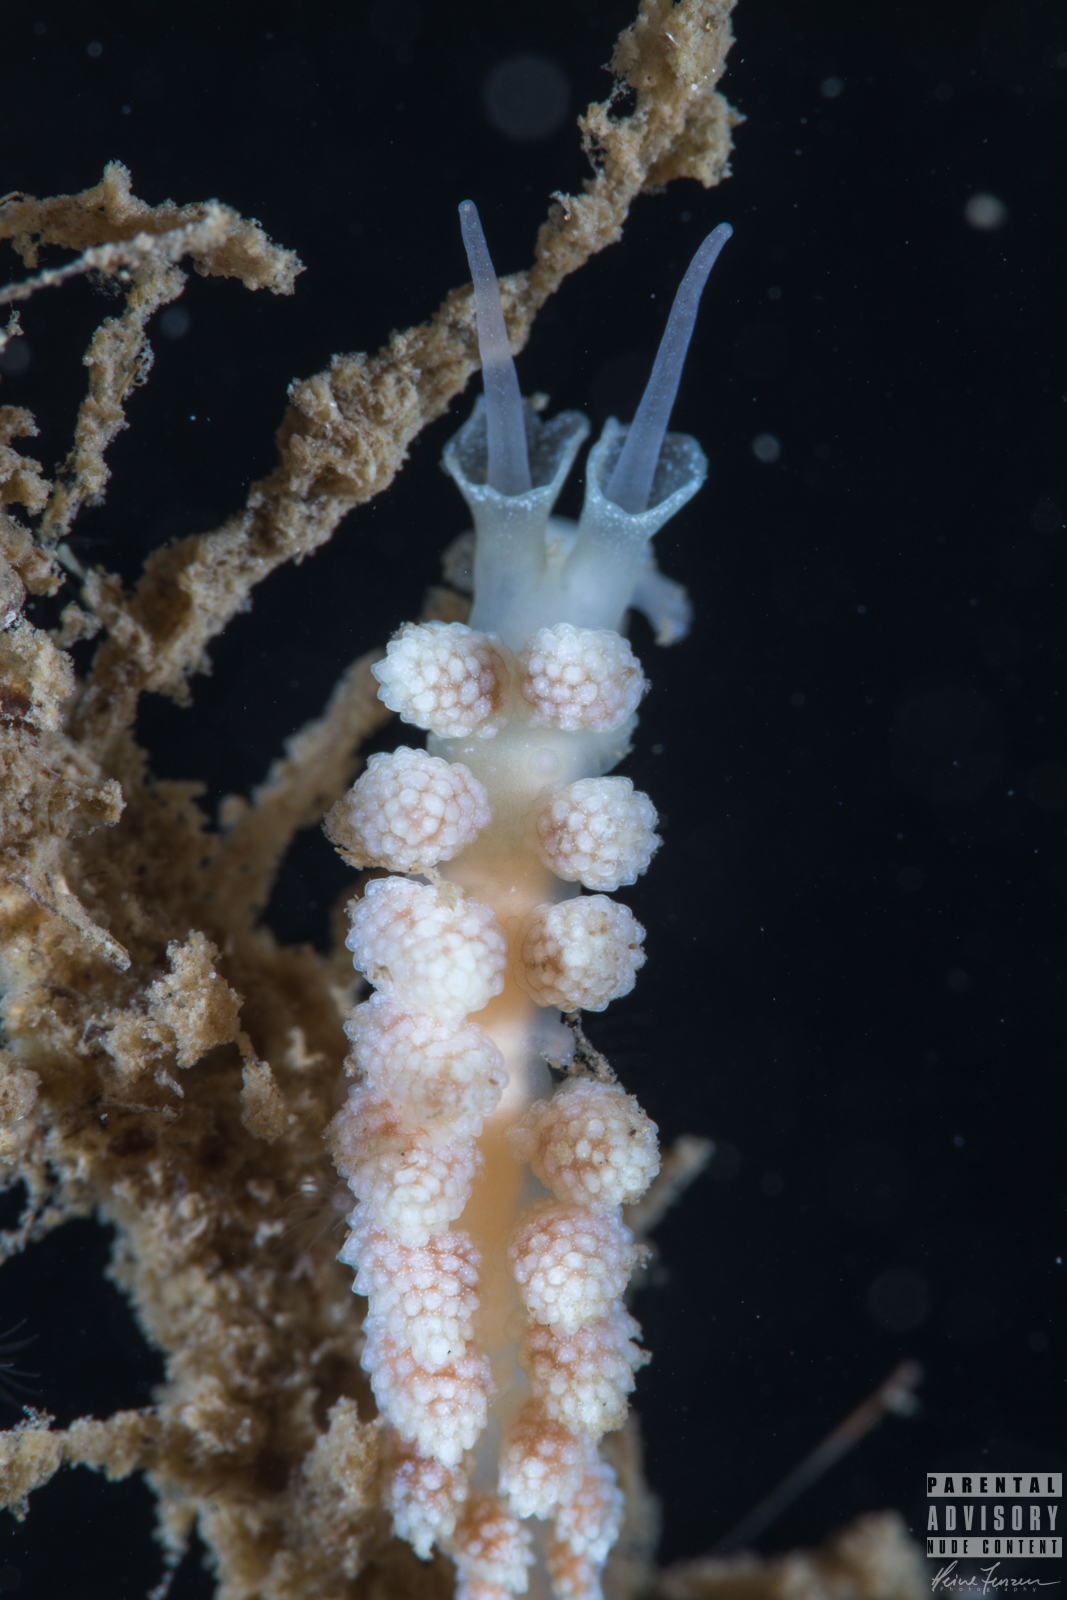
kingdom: Animalia
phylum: Mollusca
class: Gastropoda
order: Nudibranchia
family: Dotidae
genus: Doto
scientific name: Doto fragilis
